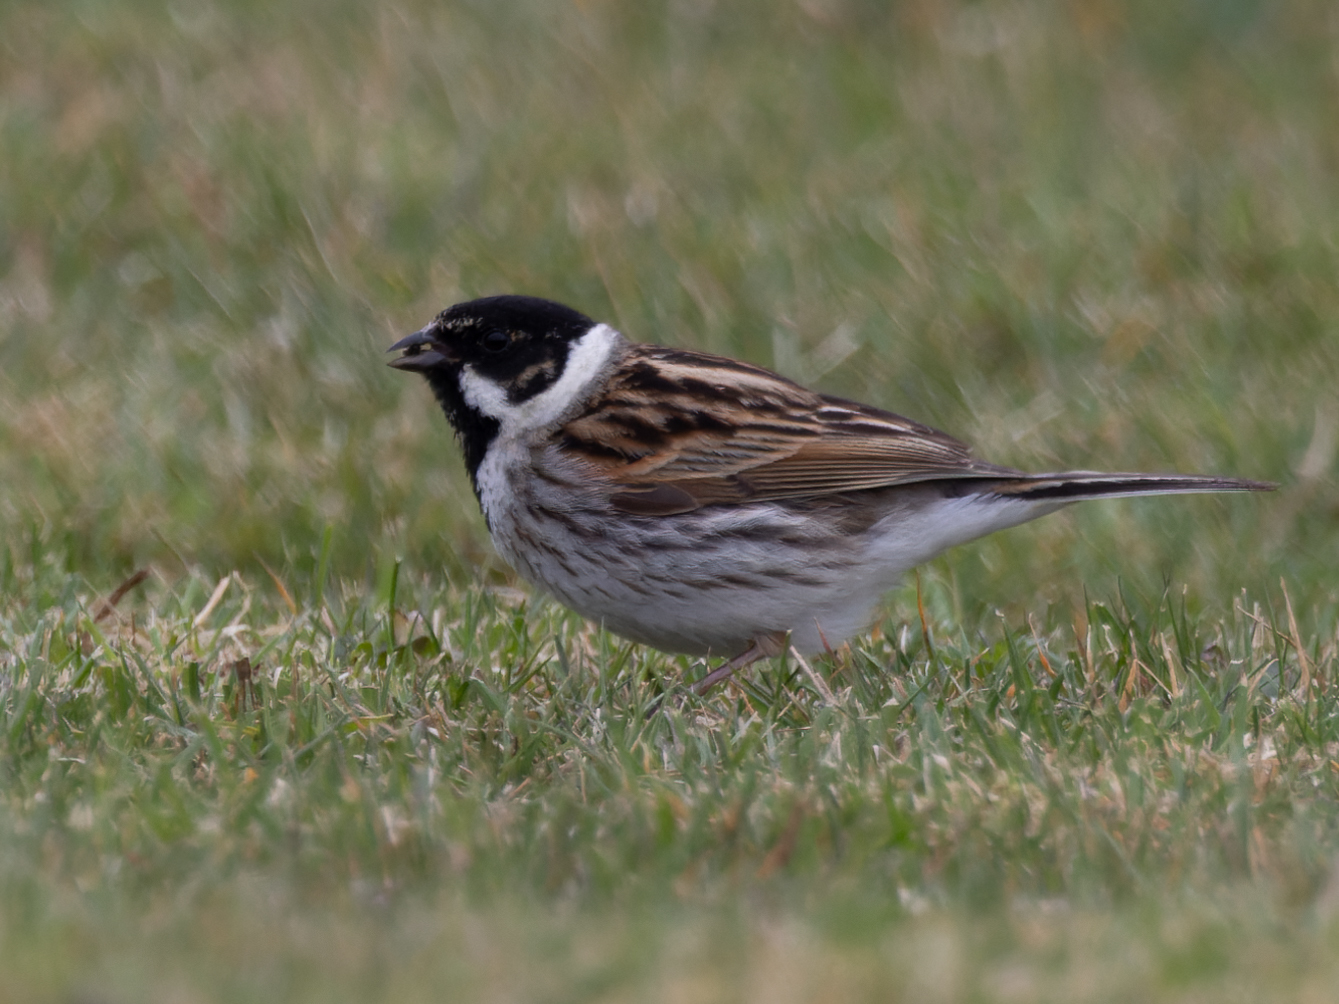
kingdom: Animalia
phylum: Chordata
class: Aves
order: Passeriformes
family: Emberizidae
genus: Emberiza
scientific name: Emberiza schoeniclus
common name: Reed bunting
